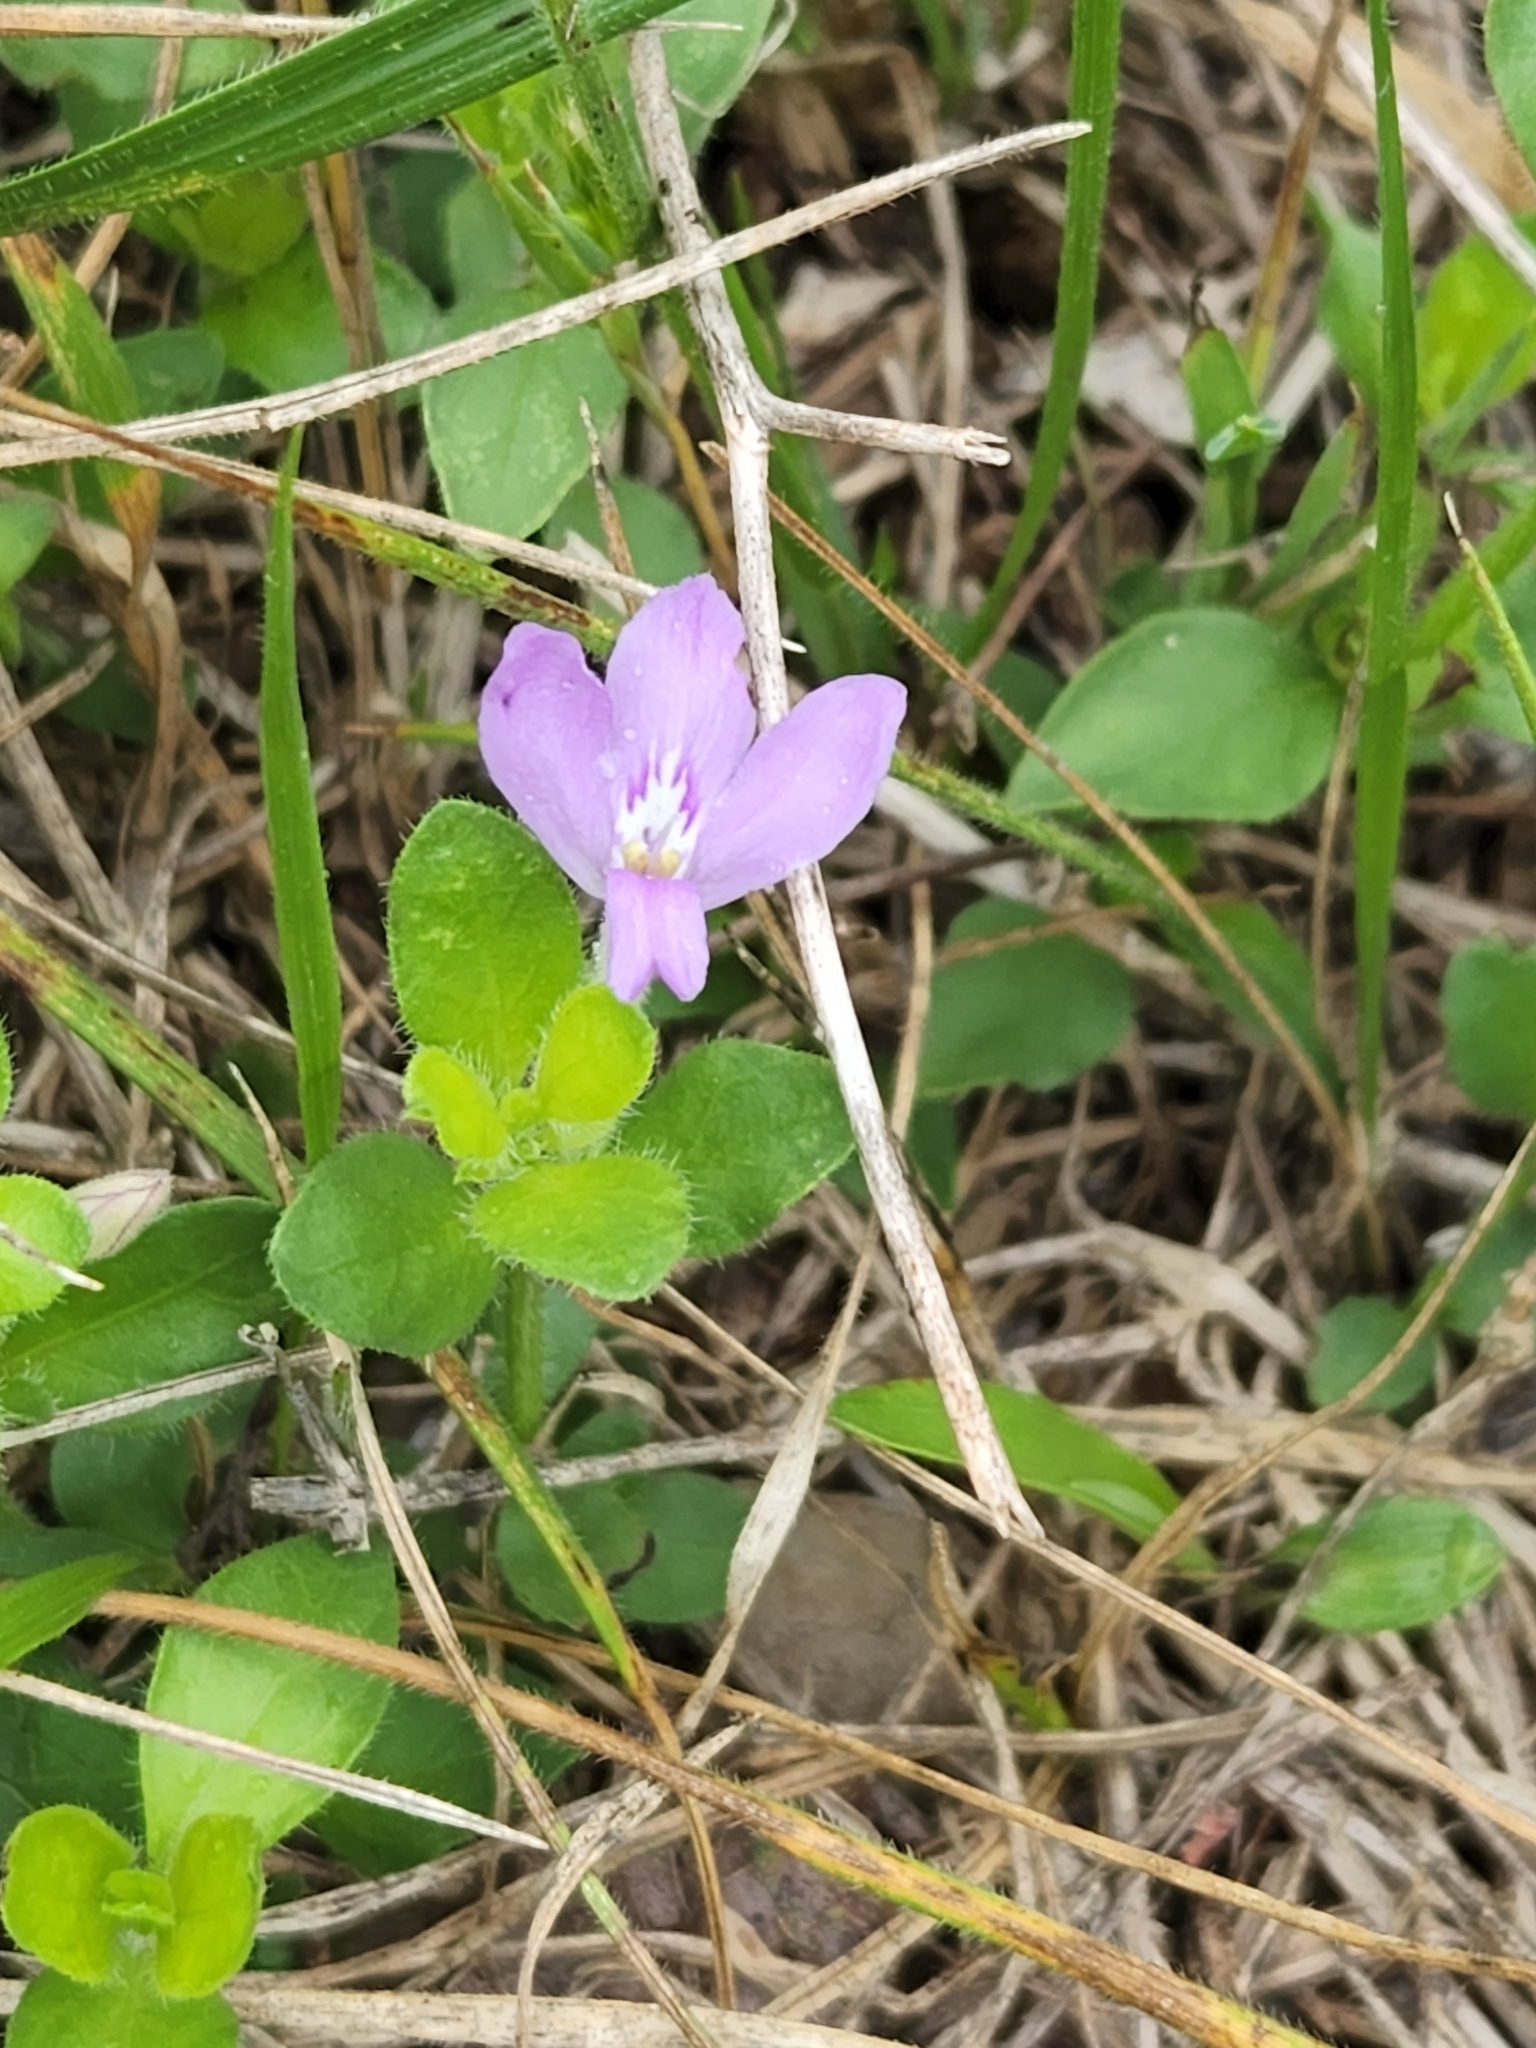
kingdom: Plantae
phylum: Tracheophyta
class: Magnoliopsida
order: Lamiales
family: Acanthaceae
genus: Justicia
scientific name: Justicia pilosella
